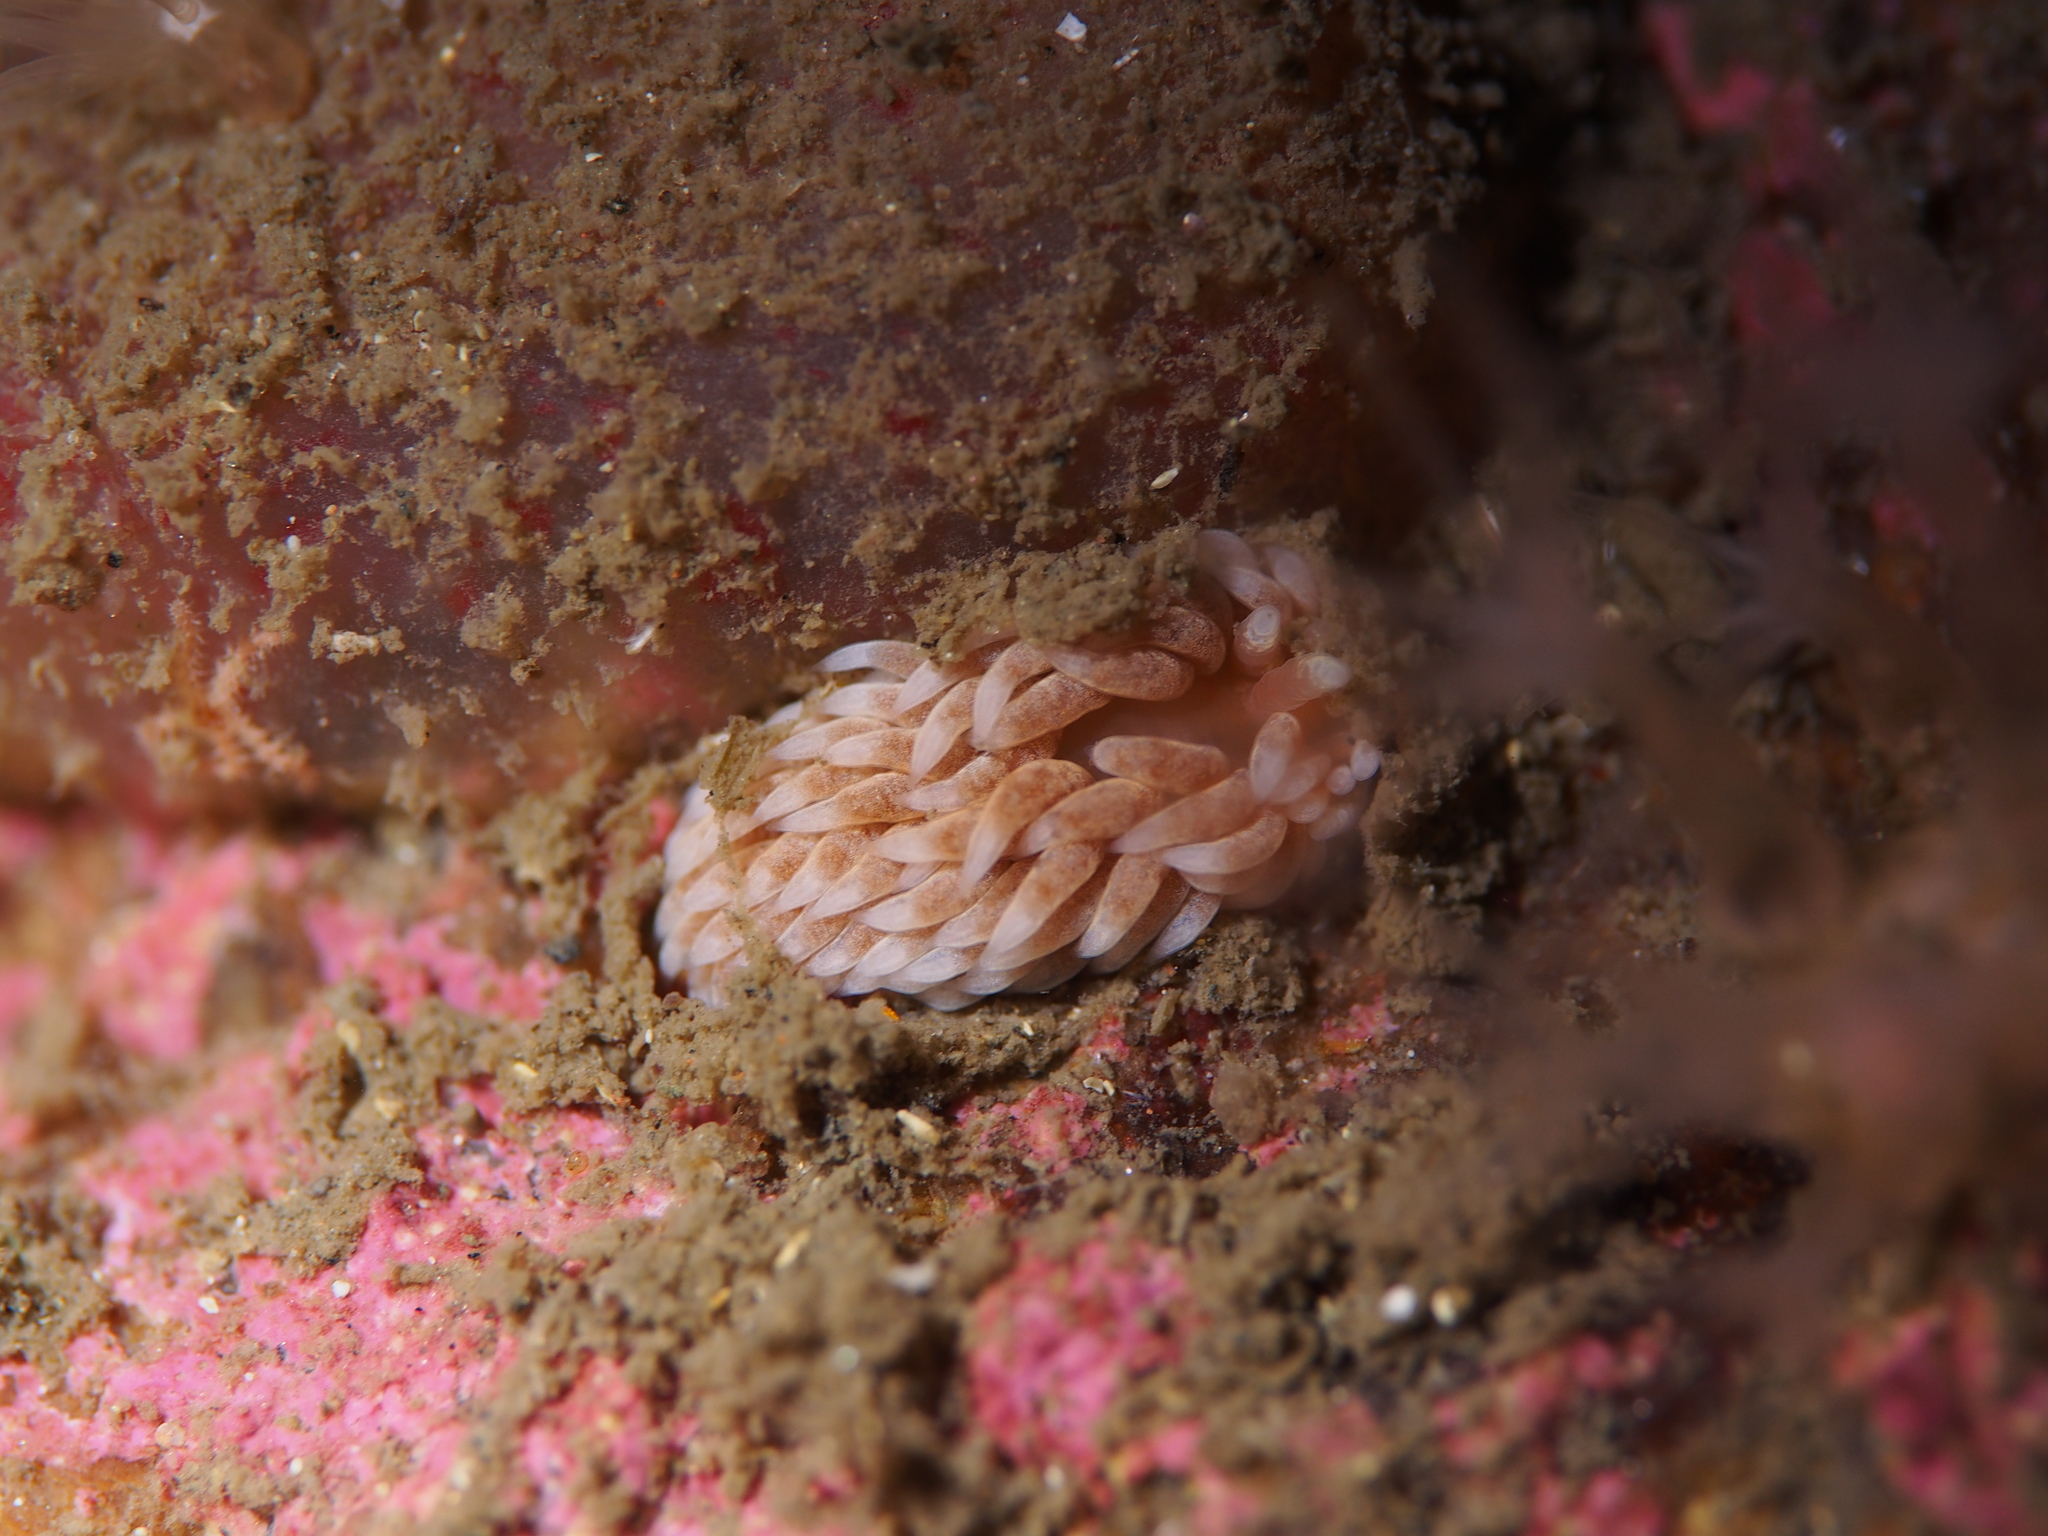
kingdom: Animalia
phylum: Mollusca
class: Gastropoda
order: Nudibranchia
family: Aeolidiidae
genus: Aeolidiella
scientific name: Aeolidiella glauca
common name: Orange-brown aeolid
